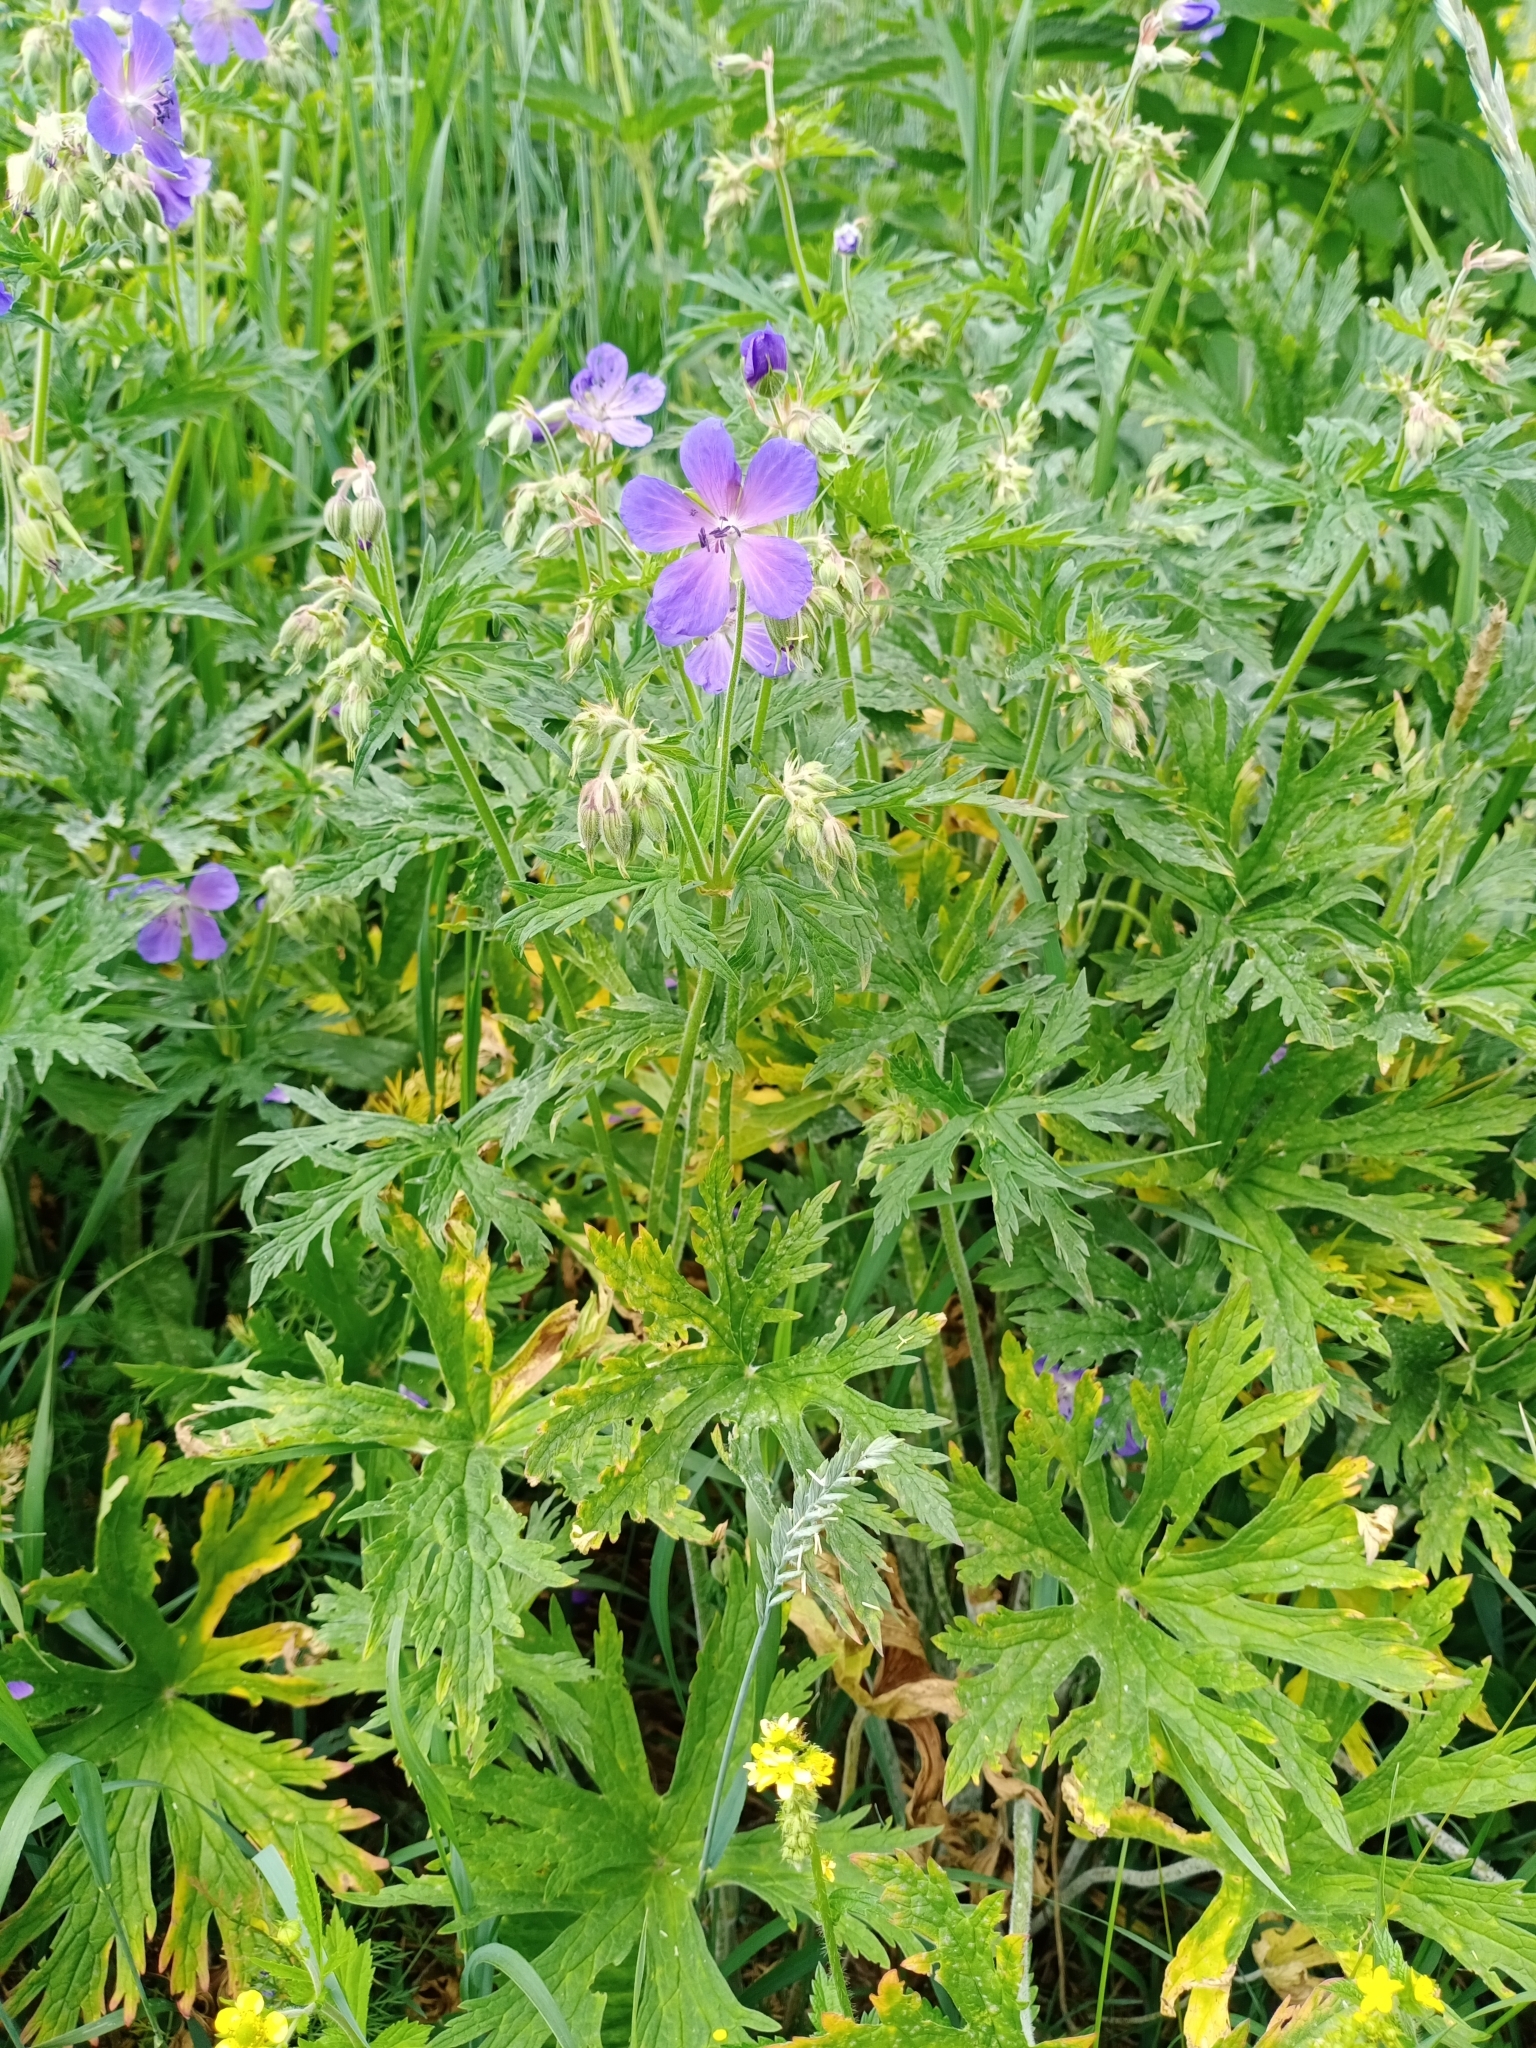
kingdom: Plantae
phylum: Tracheophyta
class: Magnoliopsida
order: Geraniales
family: Geraniaceae
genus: Geranium
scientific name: Geranium pratense
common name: Meadow crane's-bill
